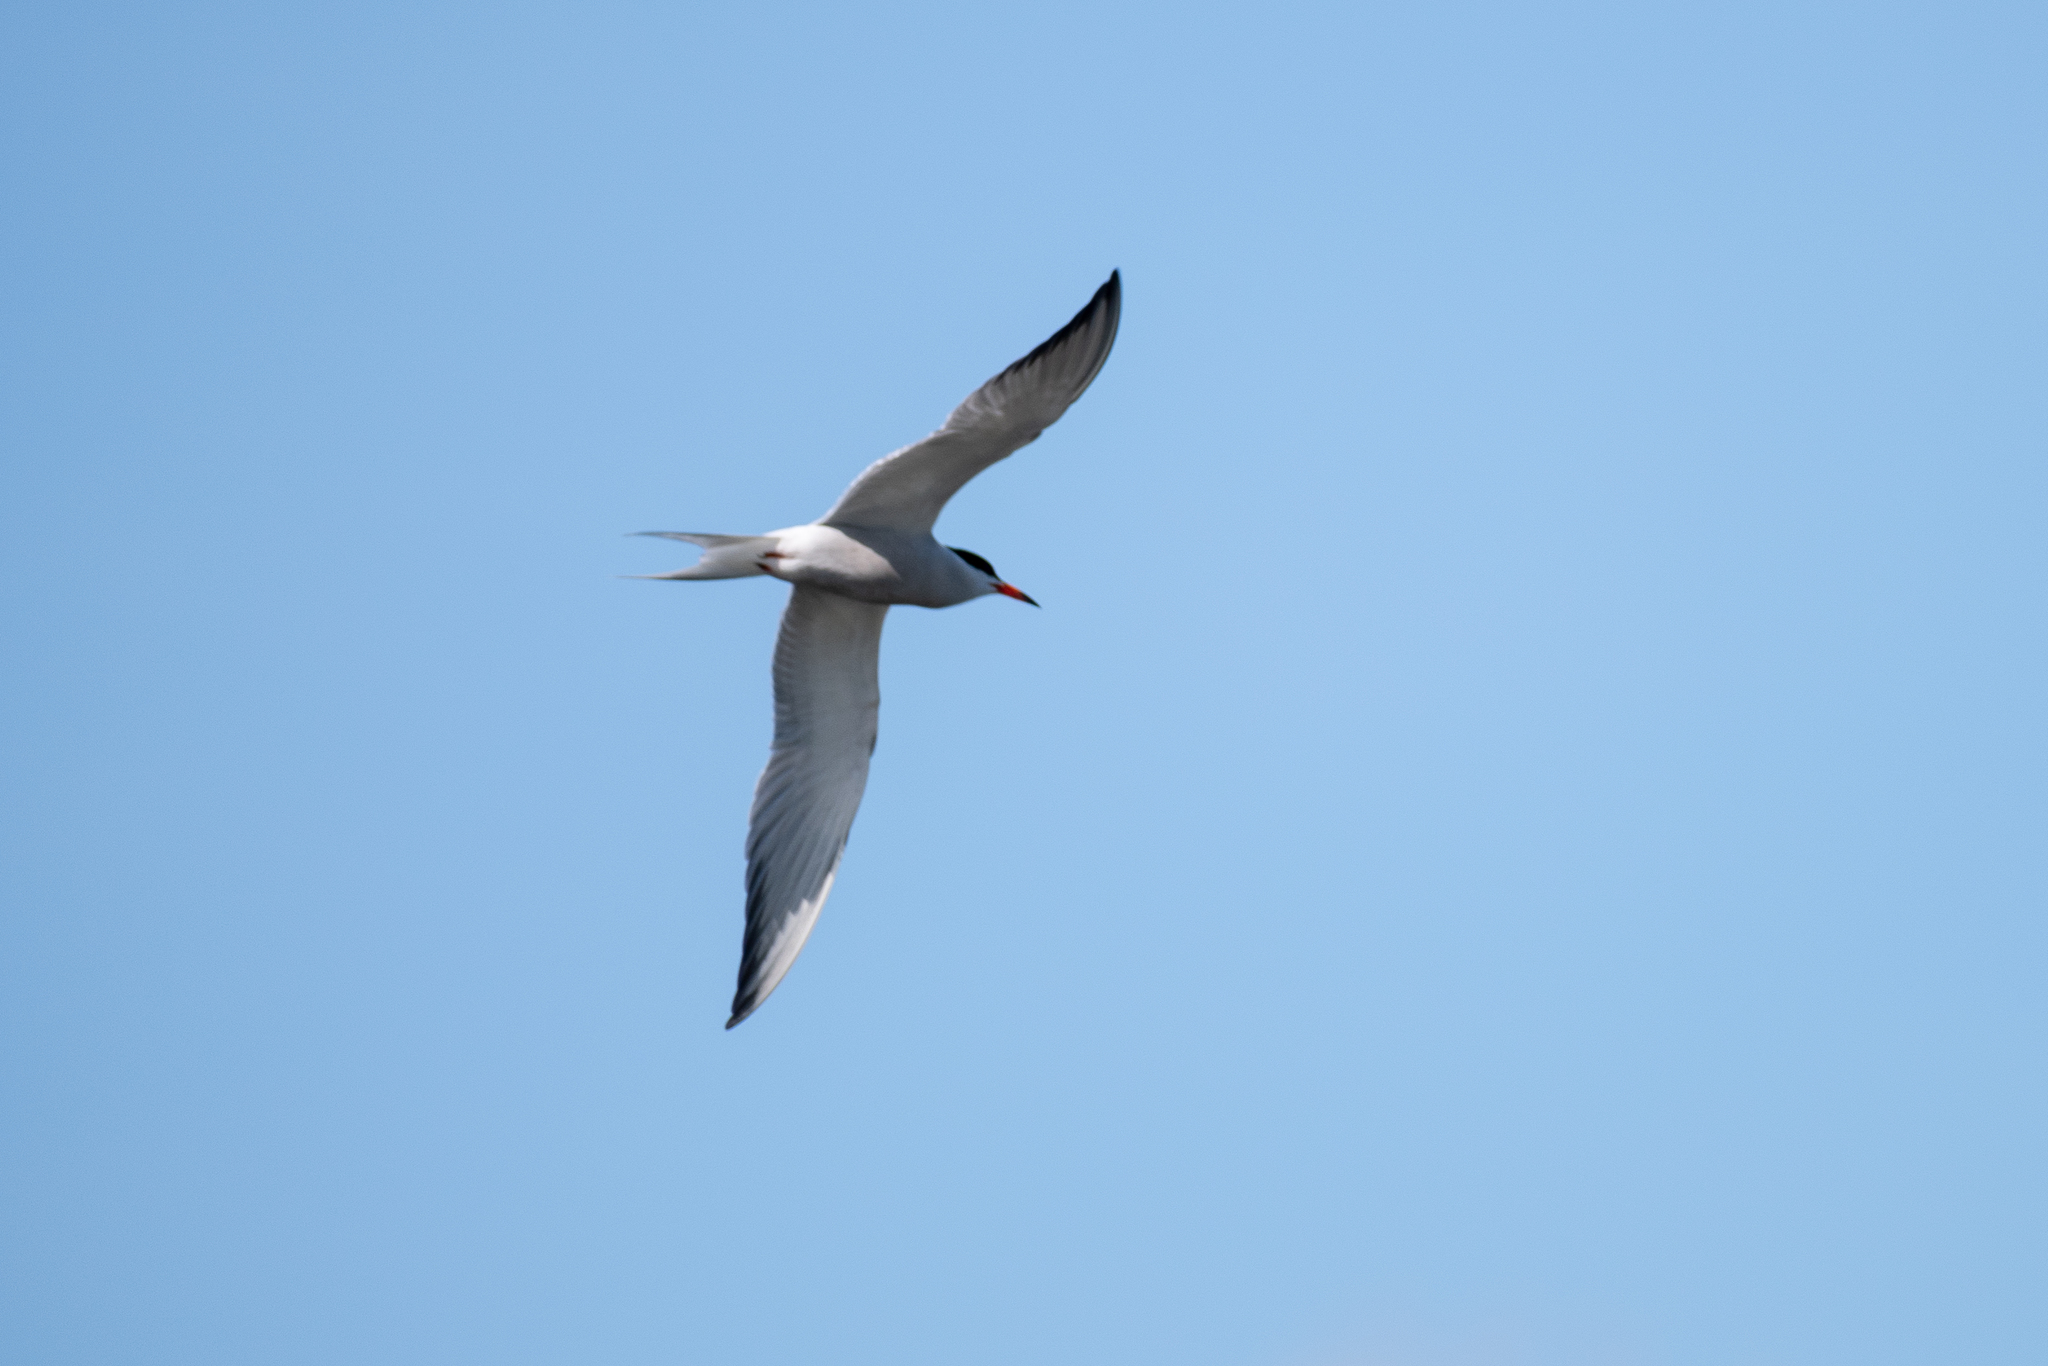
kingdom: Animalia
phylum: Chordata
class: Aves
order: Charadriiformes
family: Laridae
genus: Sterna
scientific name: Sterna hirundo
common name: Common tern
